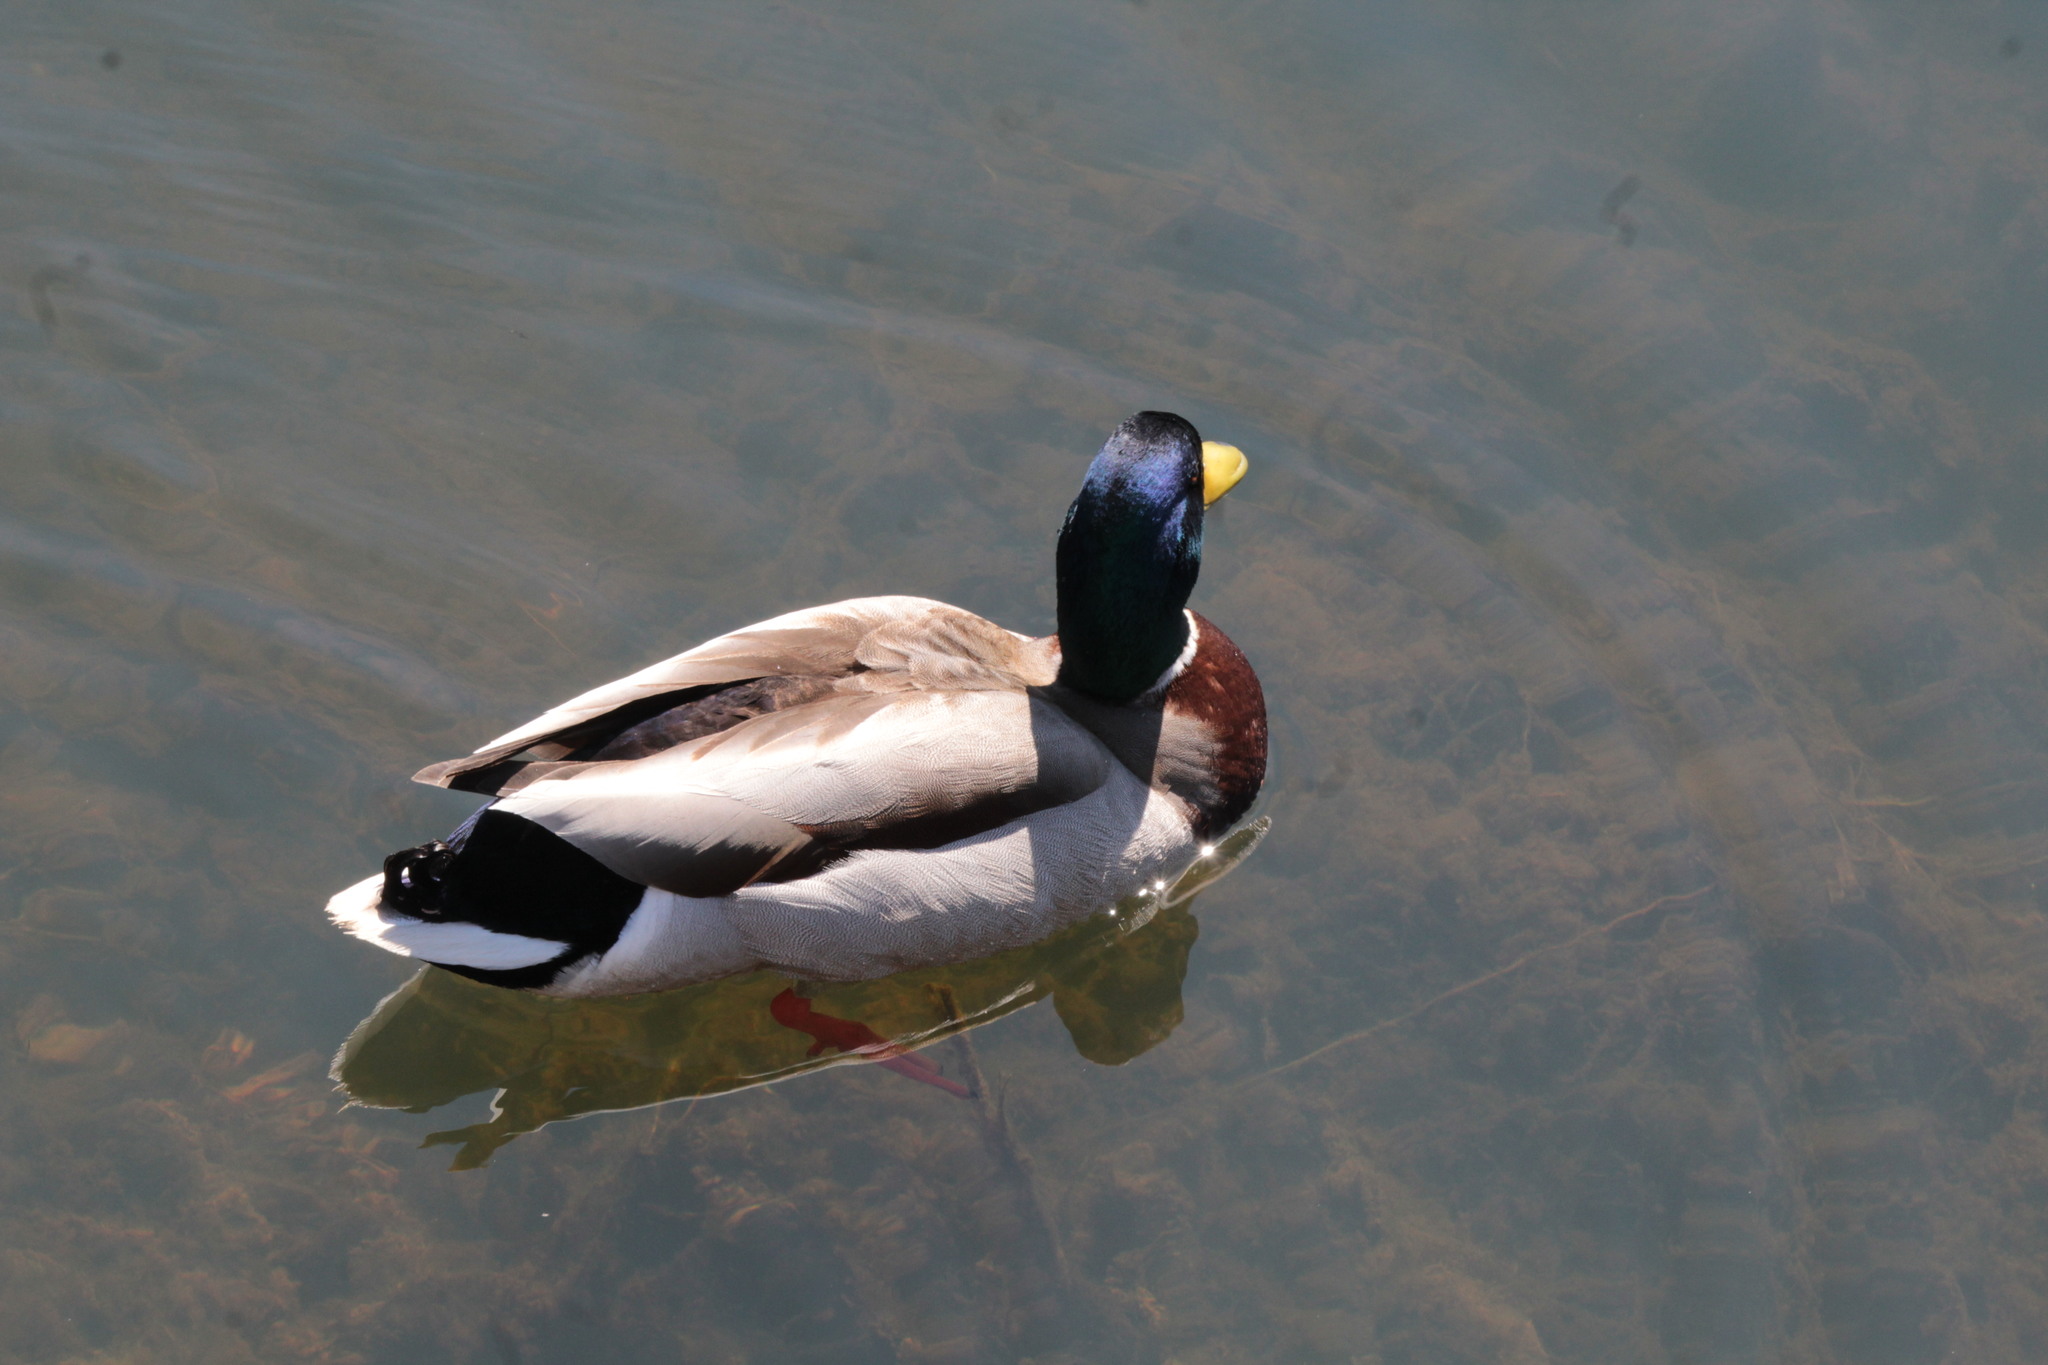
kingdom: Animalia
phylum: Chordata
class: Aves
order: Anseriformes
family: Anatidae
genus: Anas
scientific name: Anas platyrhynchos
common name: Mallard
